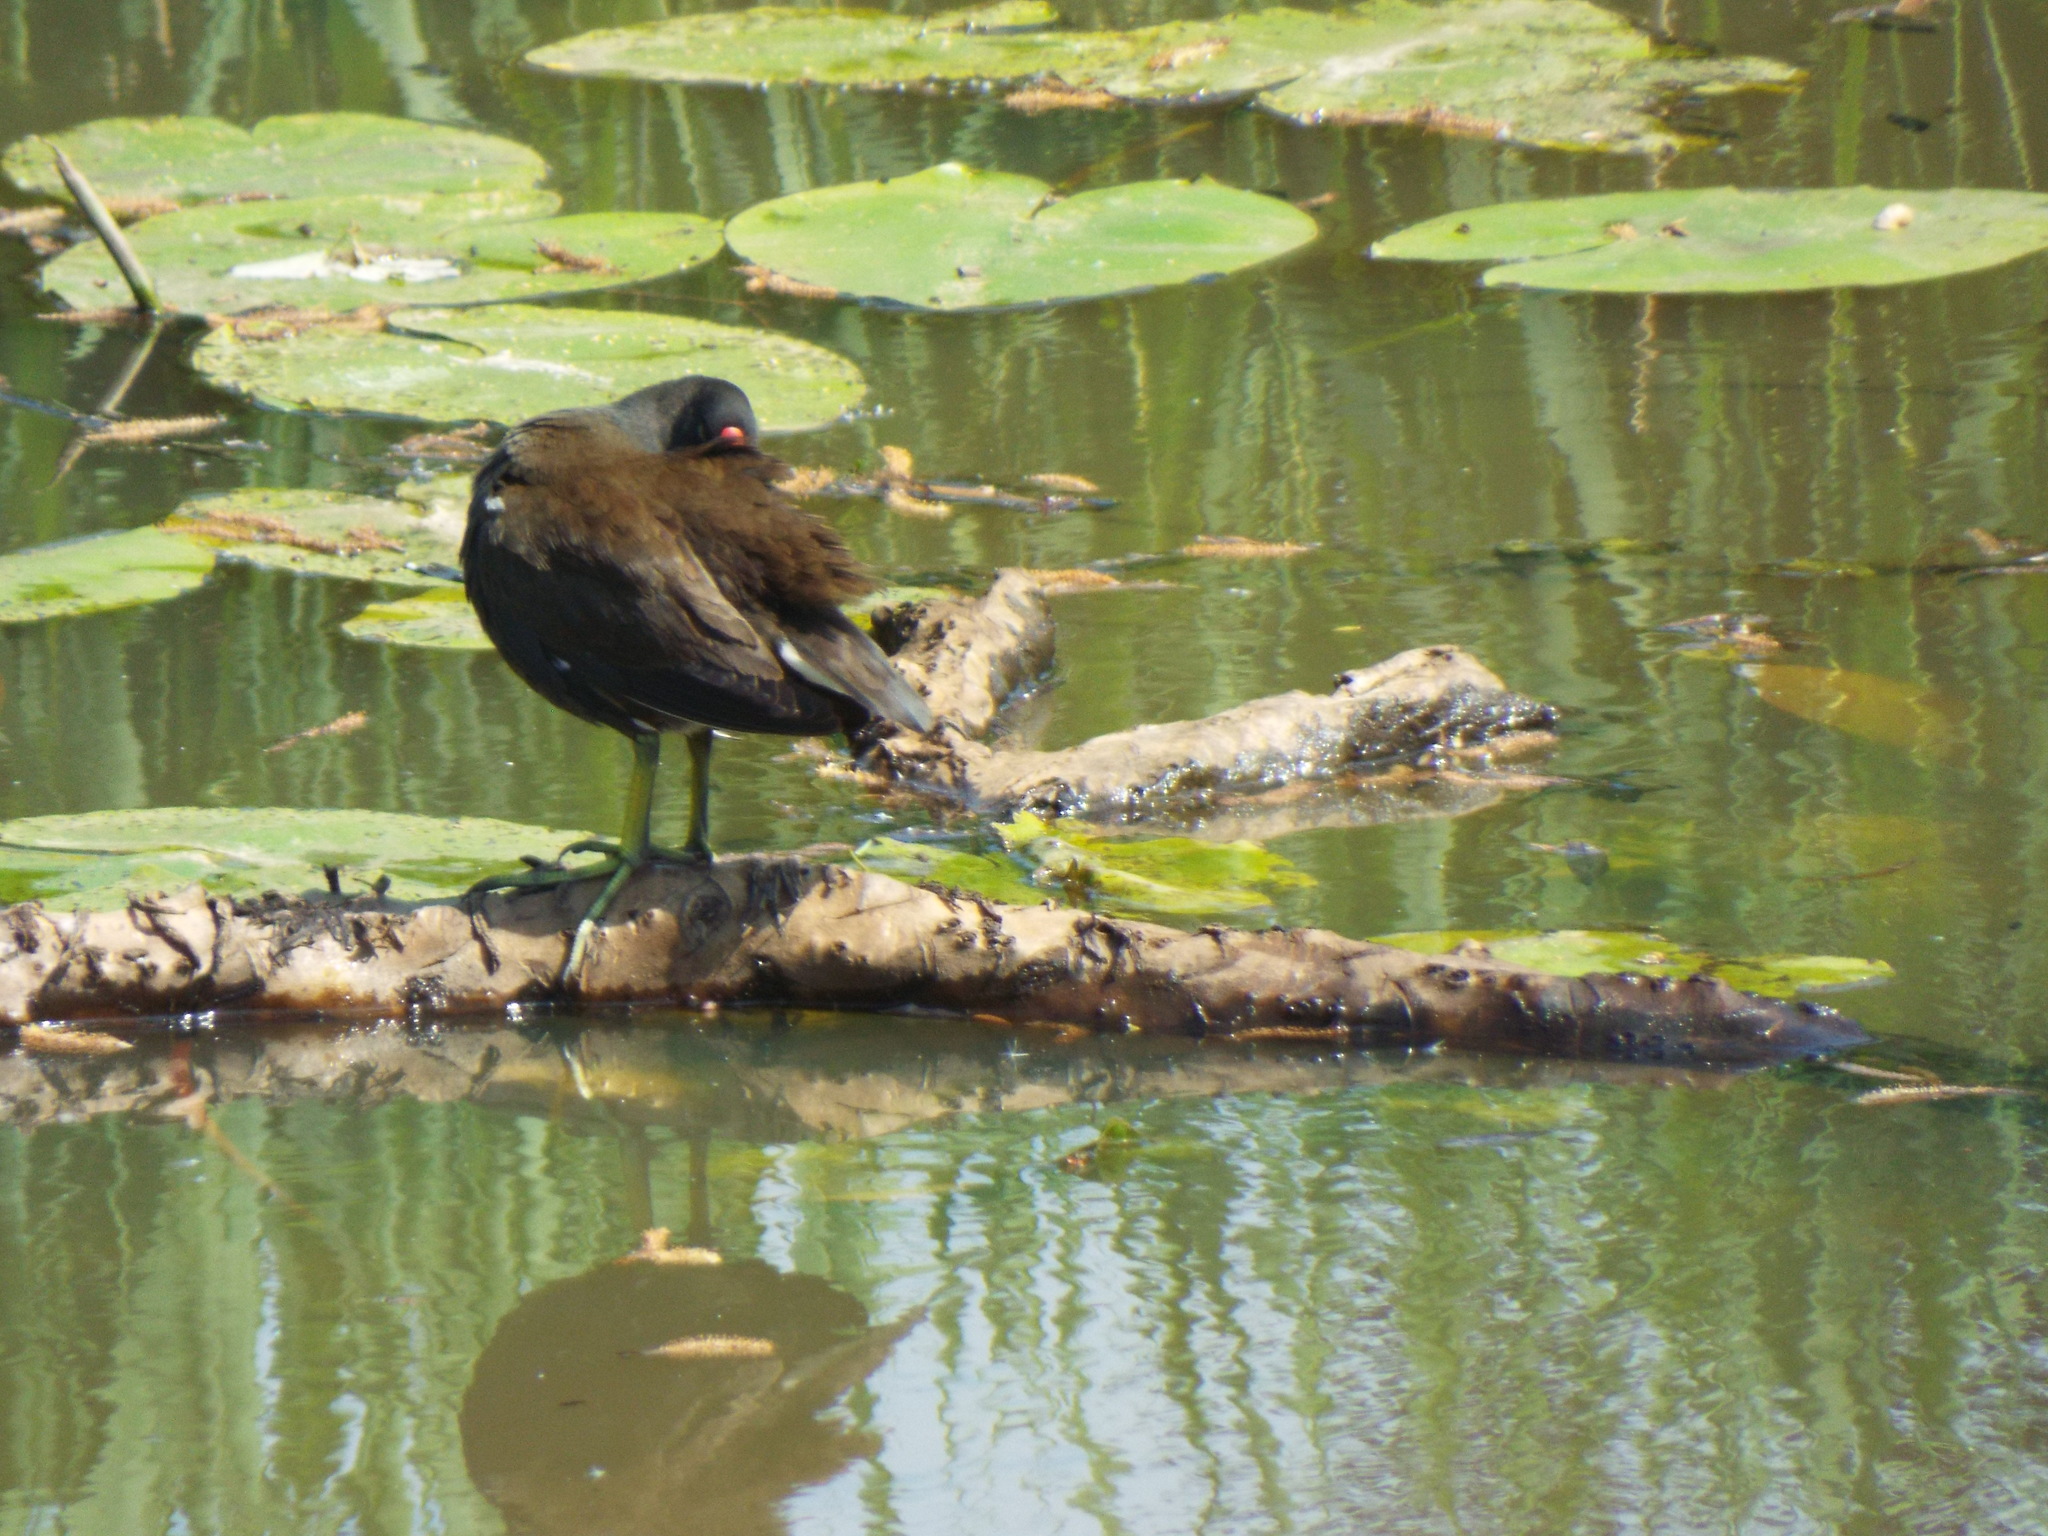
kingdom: Animalia
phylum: Chordata
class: Aves
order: Gruiformes
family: Rallidae
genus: Gallinula
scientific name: Gallinula chloropus
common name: Common moorhen
